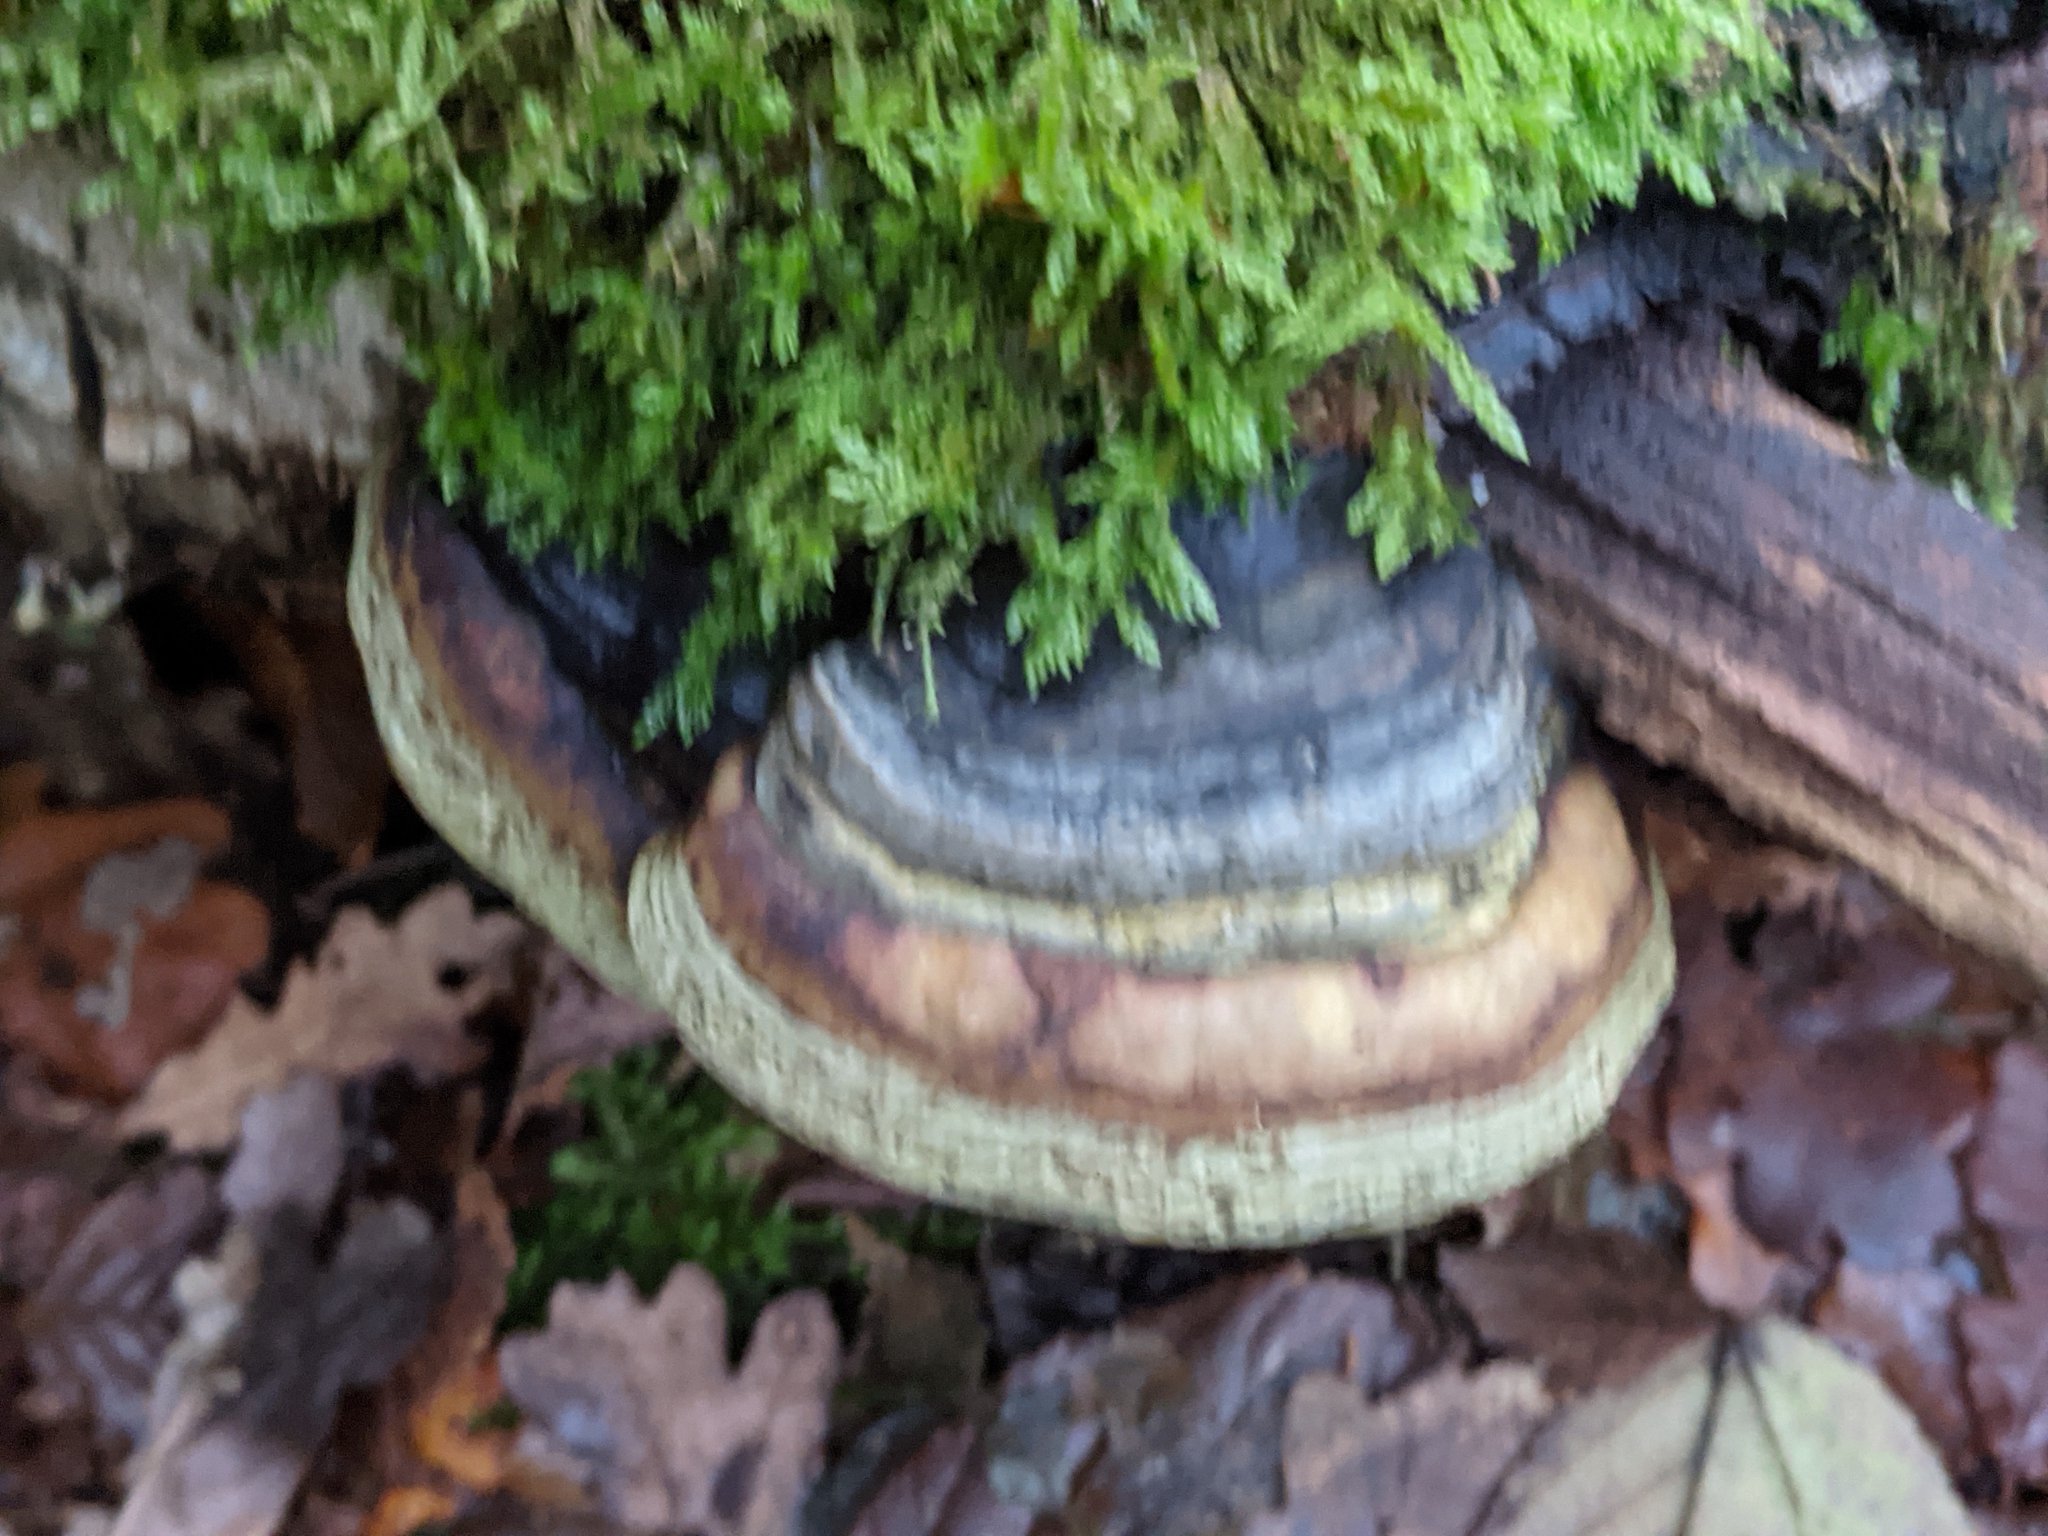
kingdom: Fungi
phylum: Basidiomycota
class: Agaricomycetes
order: Polyporales
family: Polyporaceae
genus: Fomes
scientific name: Fomes fomentarius
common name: Hoof fungus
